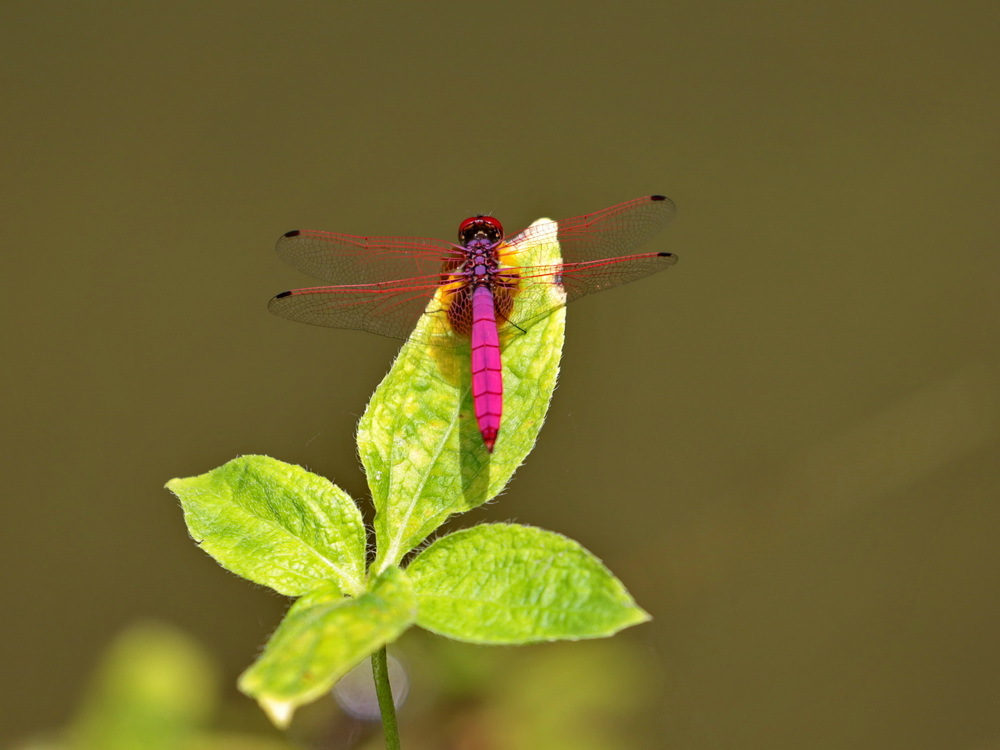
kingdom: Animalia
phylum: Arthropoda
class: Insecta
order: Odonata
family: Libellulidae
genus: Trithemis
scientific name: Trithemis aurora
